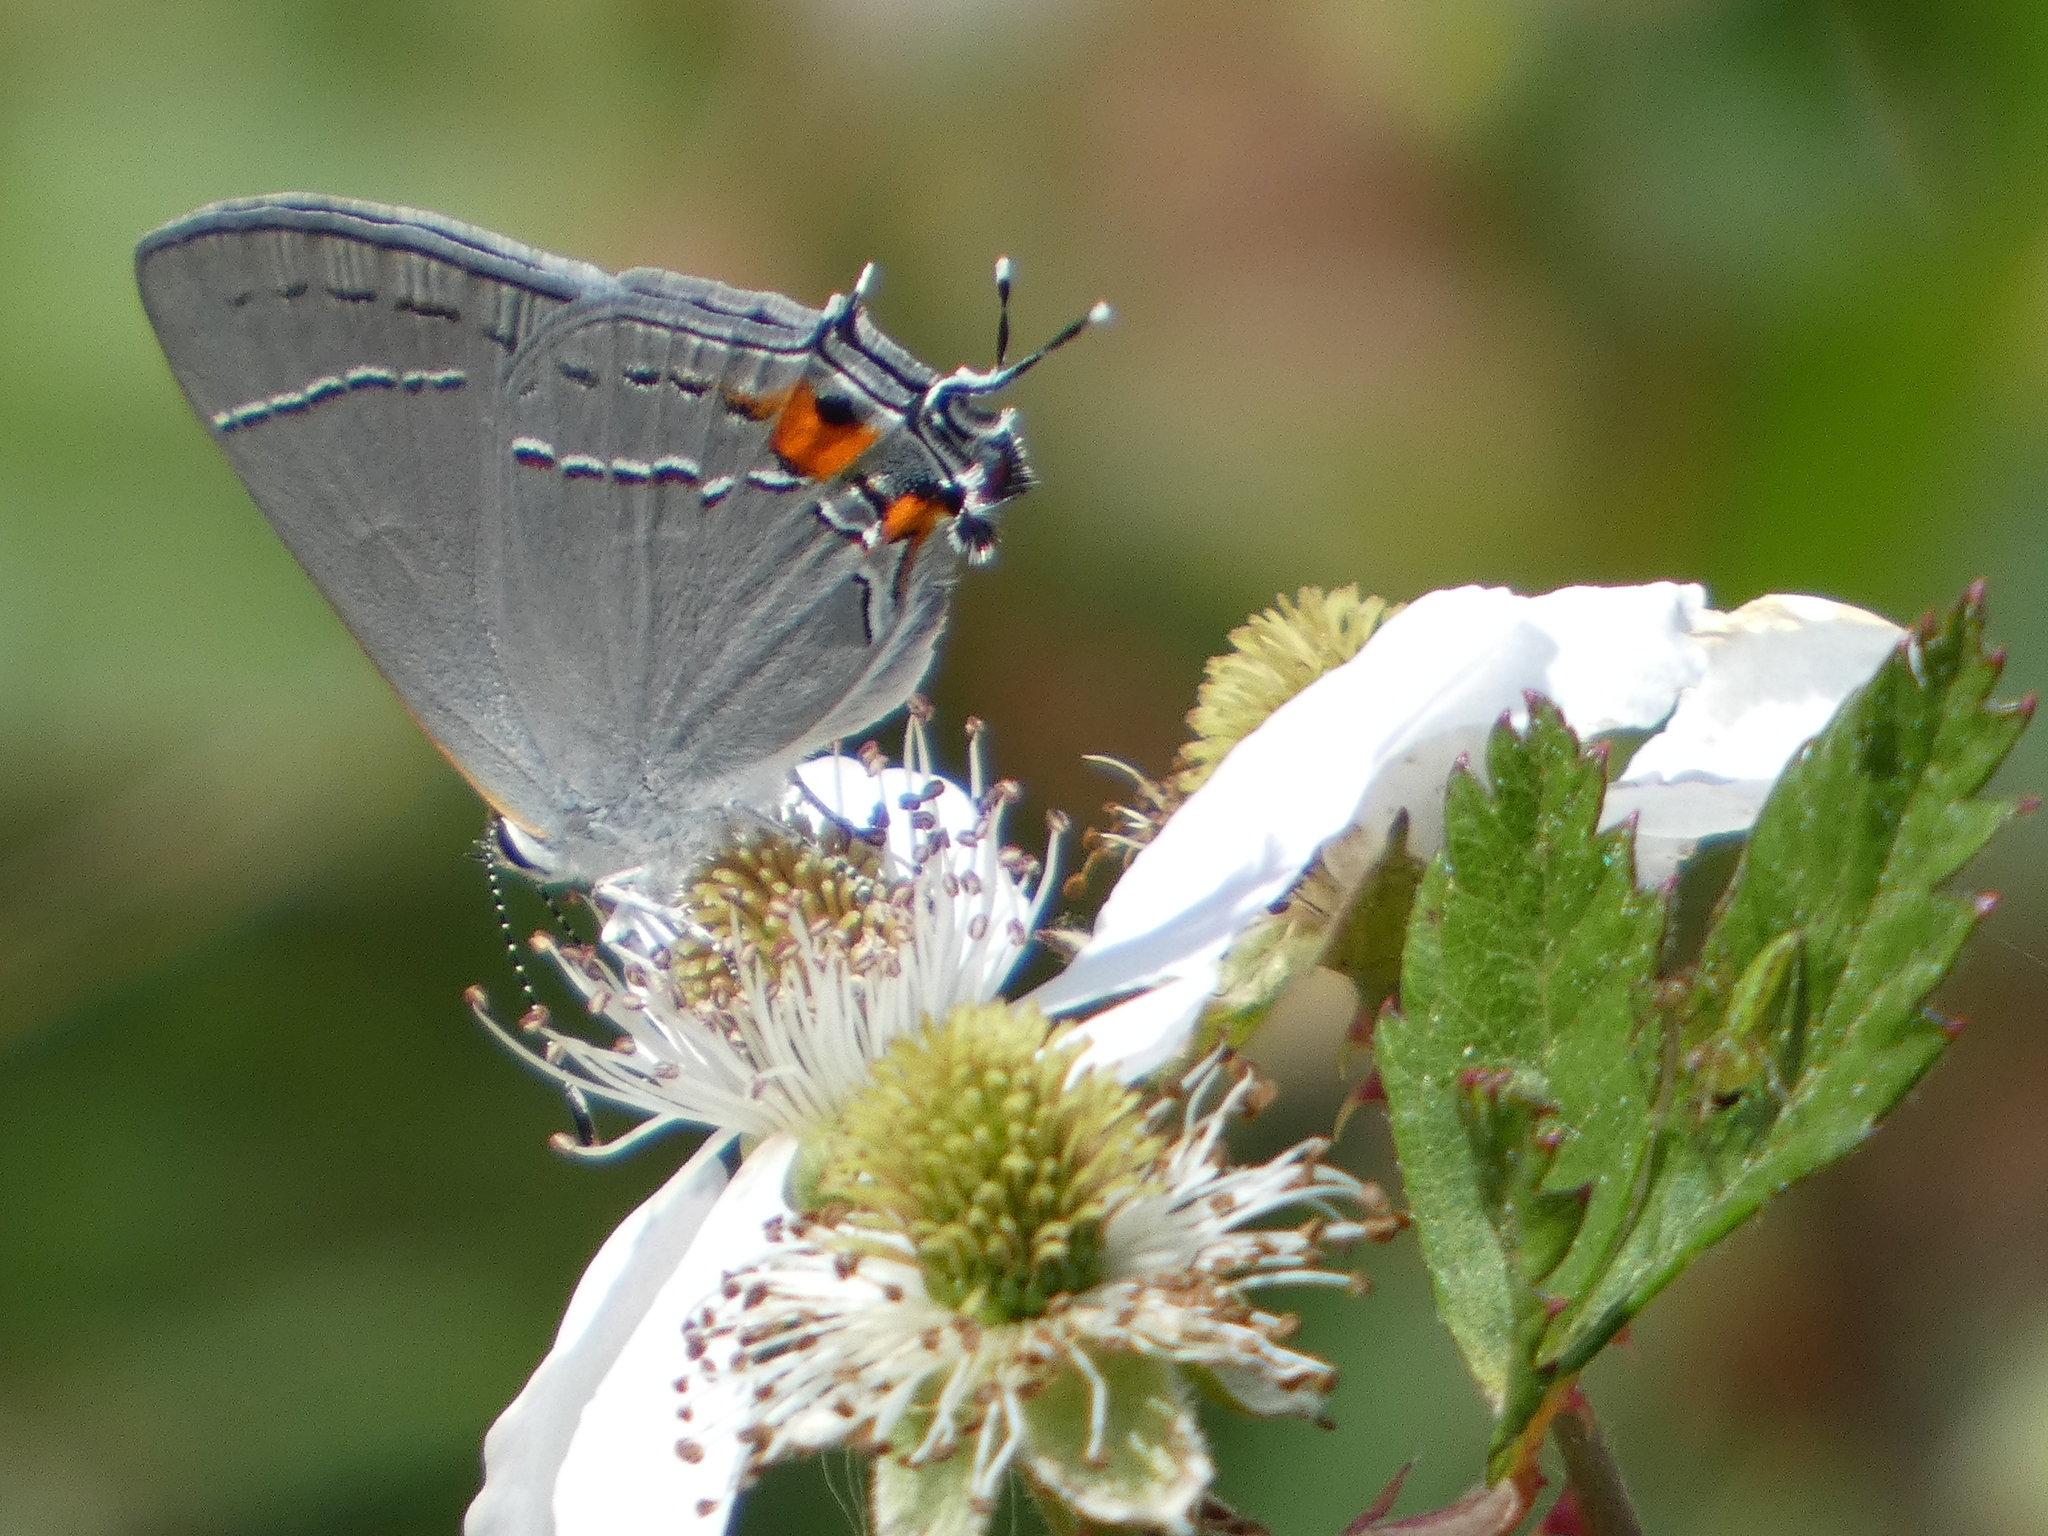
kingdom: Animalia
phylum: Arthropoda
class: Insecta
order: Lepidoptera
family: Lycaenidae
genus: Strymon
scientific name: Strymon melinus
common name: Gray hairstreak
